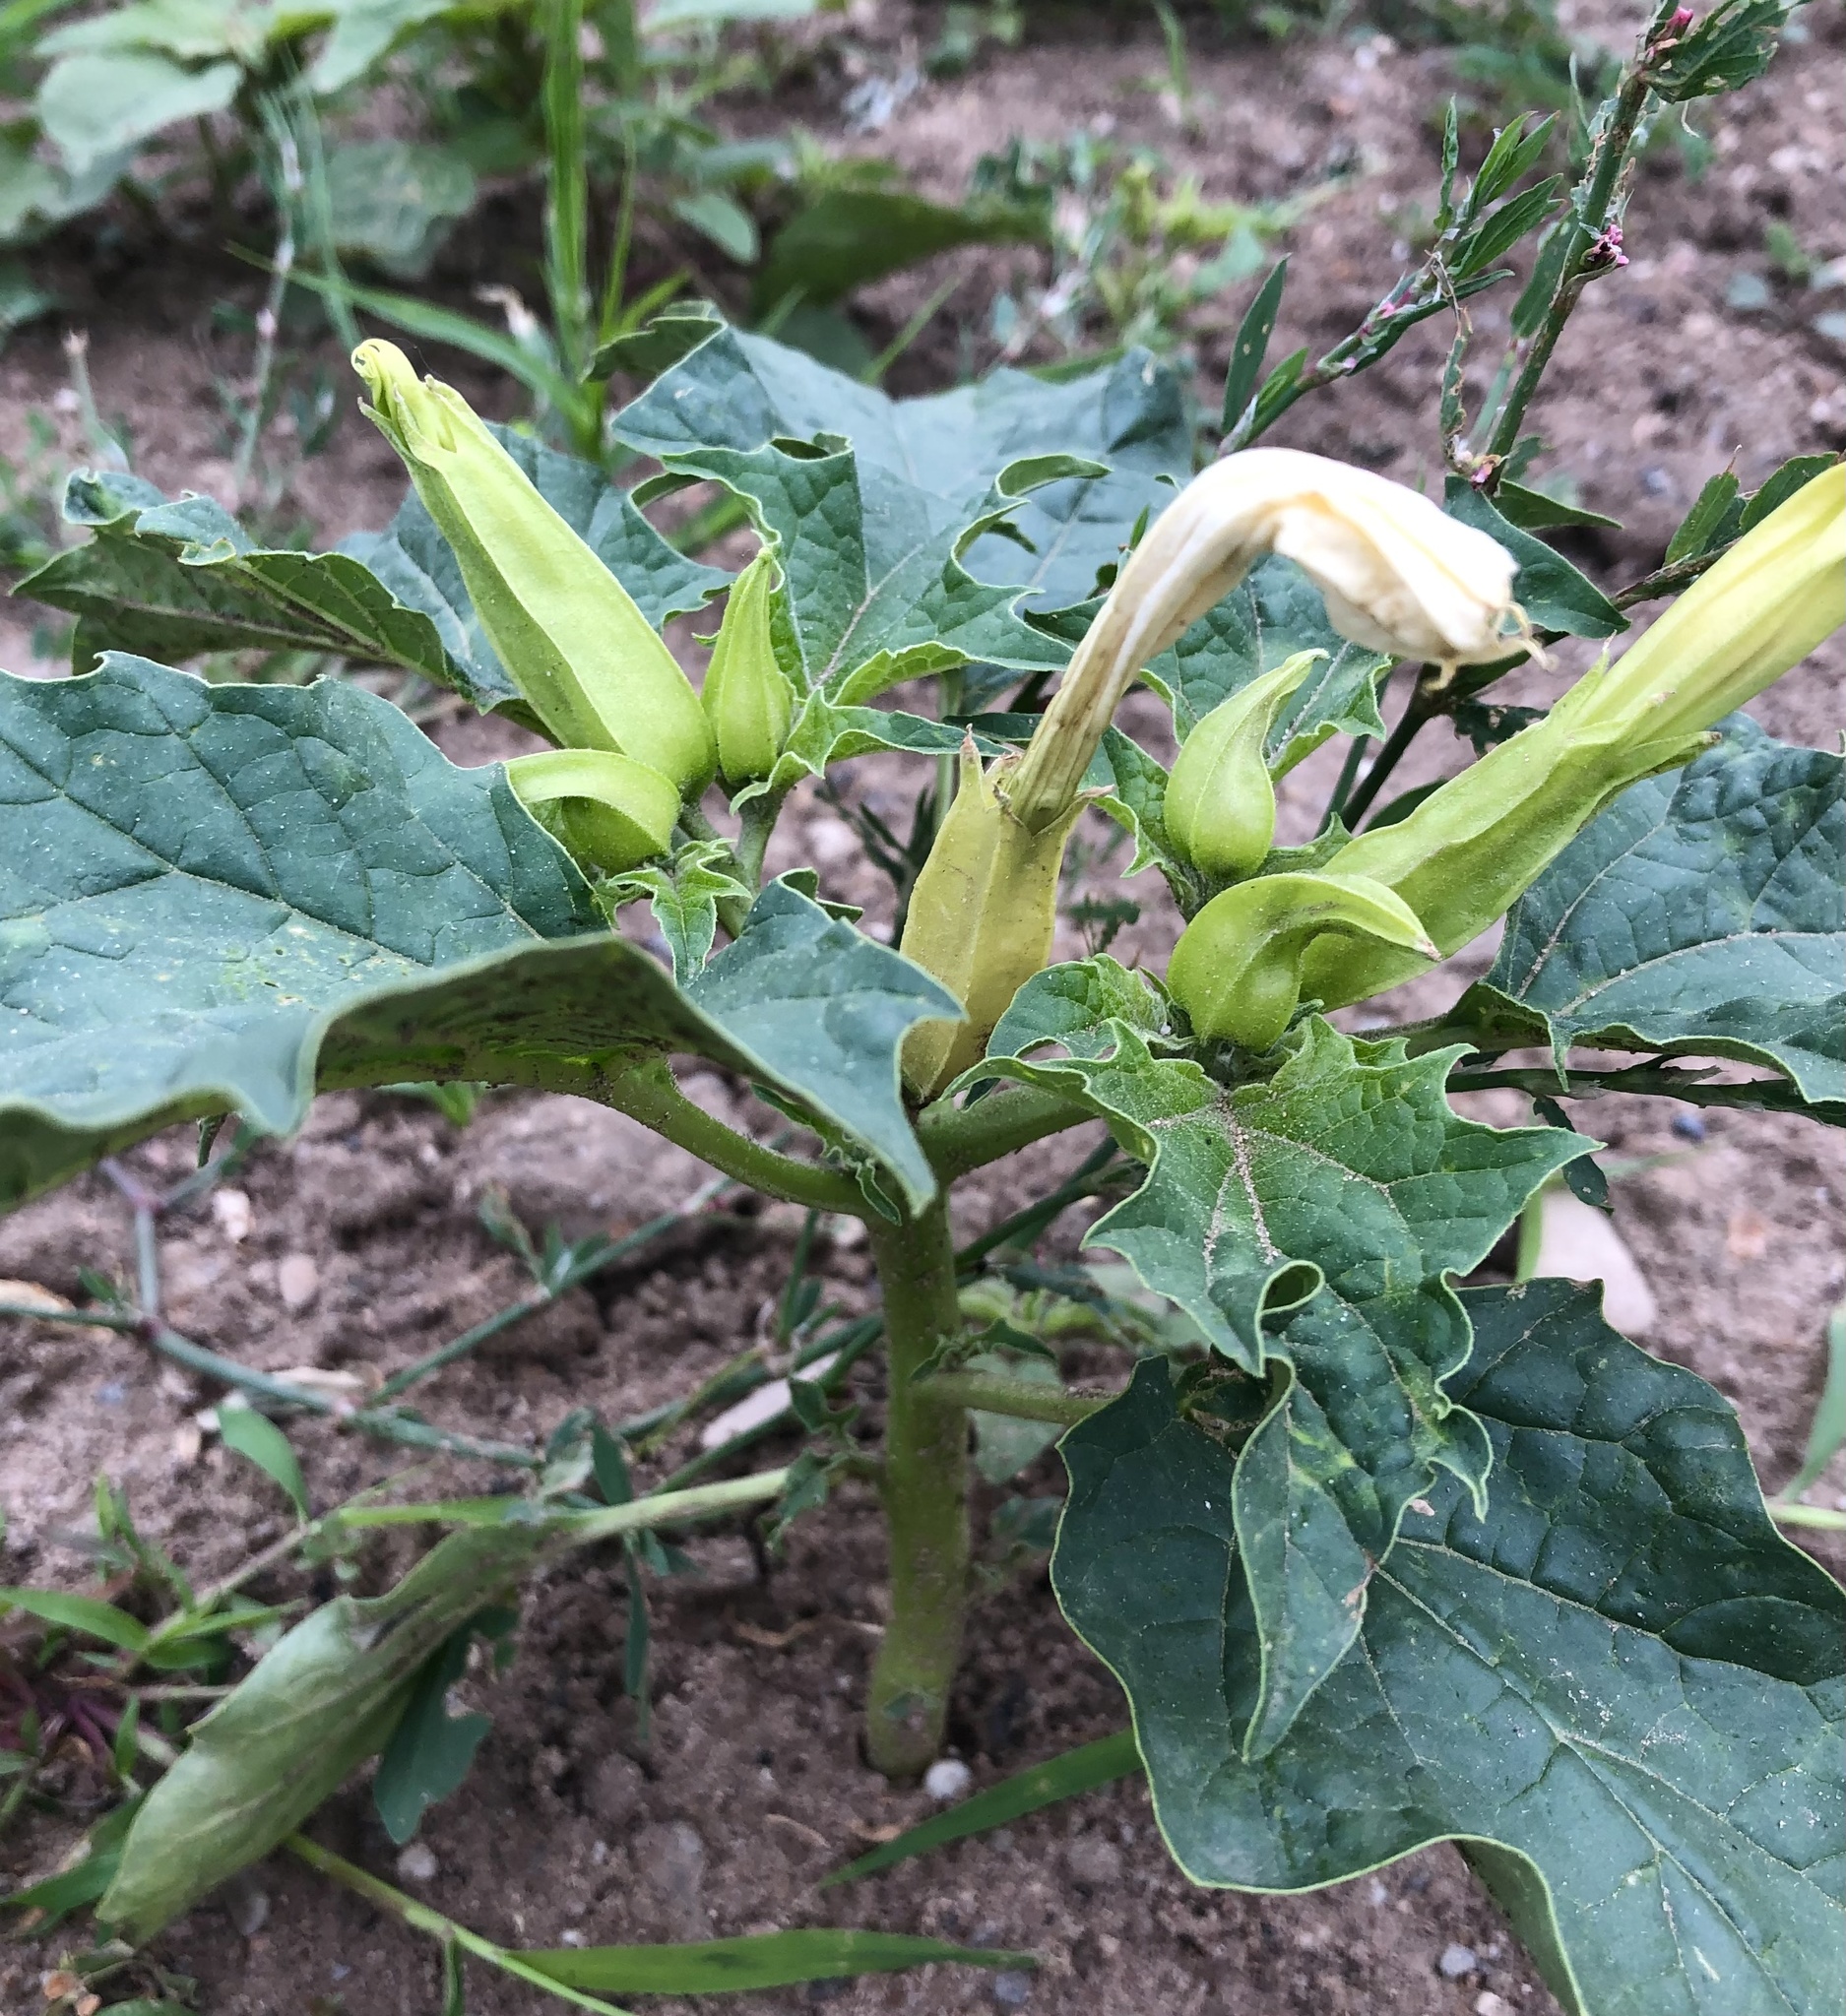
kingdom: Plantae
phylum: Tracheophyta
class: Magnoliopsida
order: Solanales
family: Solanaceae
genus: Datura
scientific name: Datura stramonium
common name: Thorn-apple
